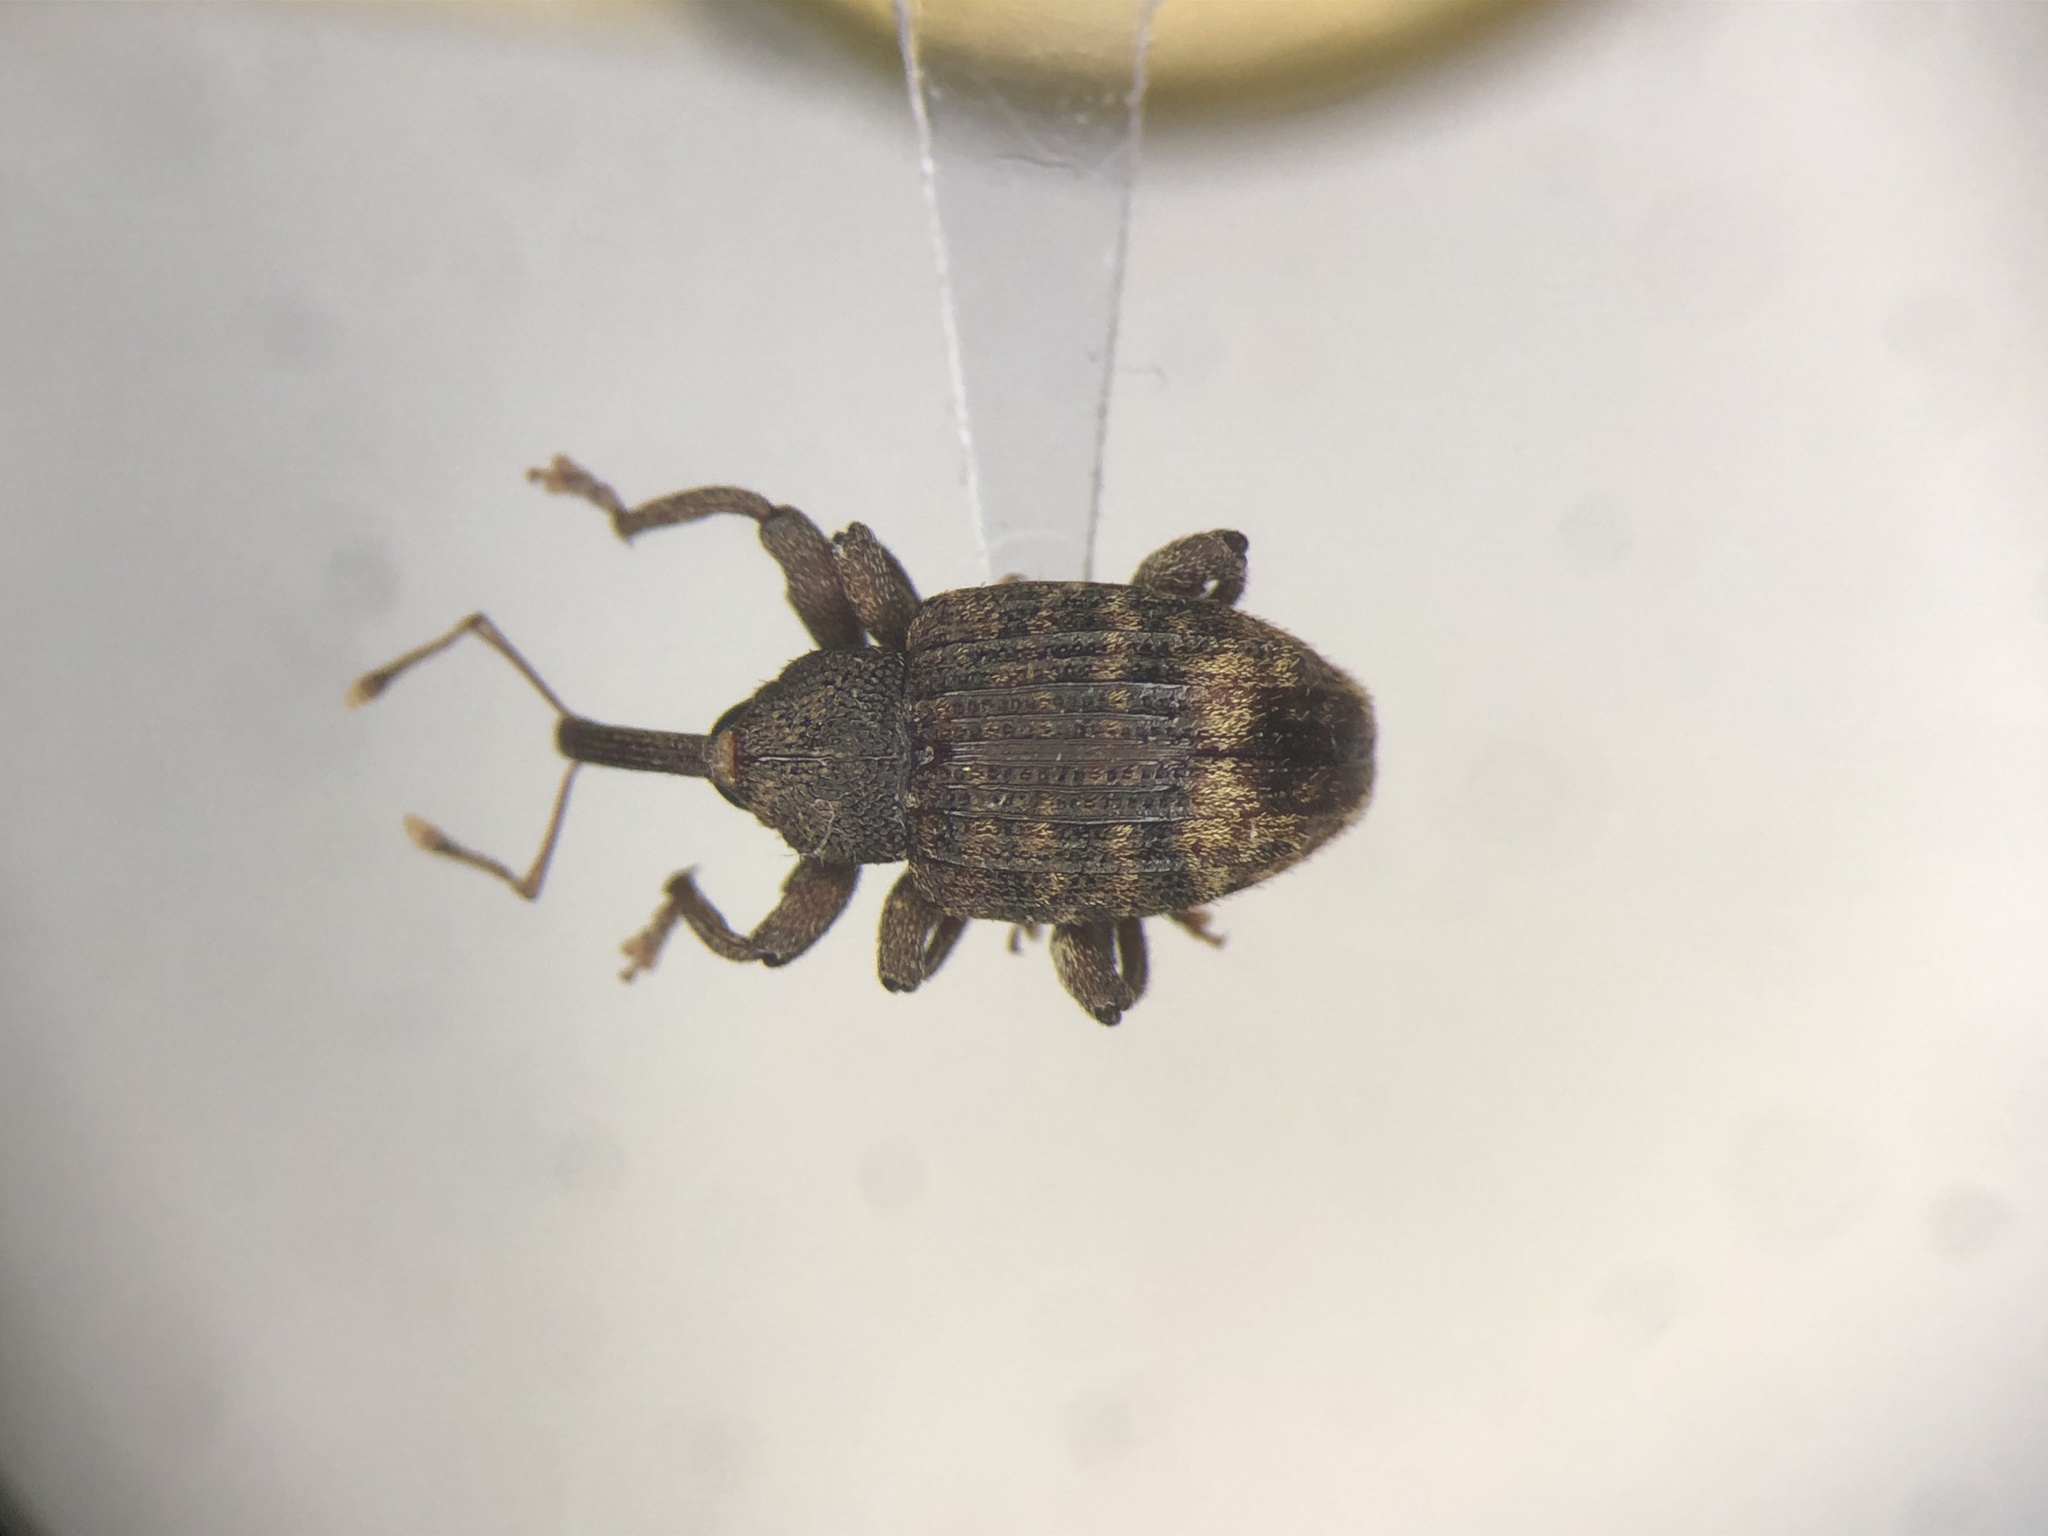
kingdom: Animalia
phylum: Arthropoda
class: Insecta
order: Coleoptera
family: Curculionidae
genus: Conotrachelus
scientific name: Conotrachelus posticatus
